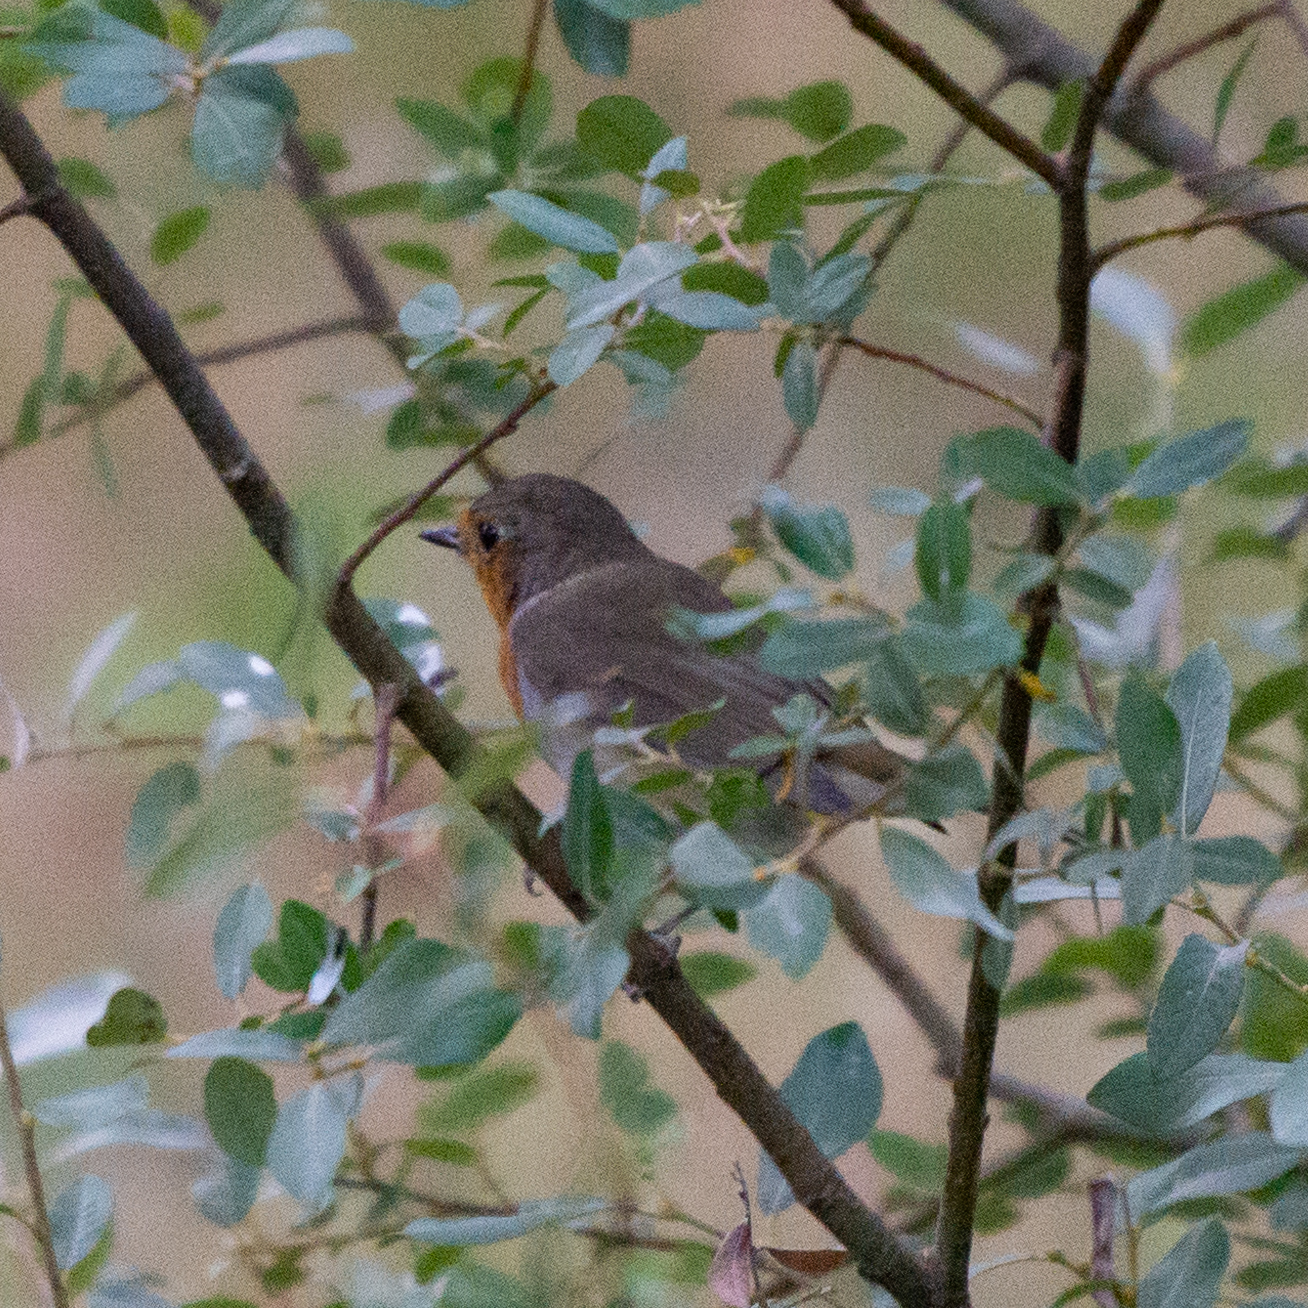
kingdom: Animalia
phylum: Chordata
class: Aves
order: Passeriformes
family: Muscicapidae
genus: Erithacus
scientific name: Erithacus rubecula
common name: European robin
